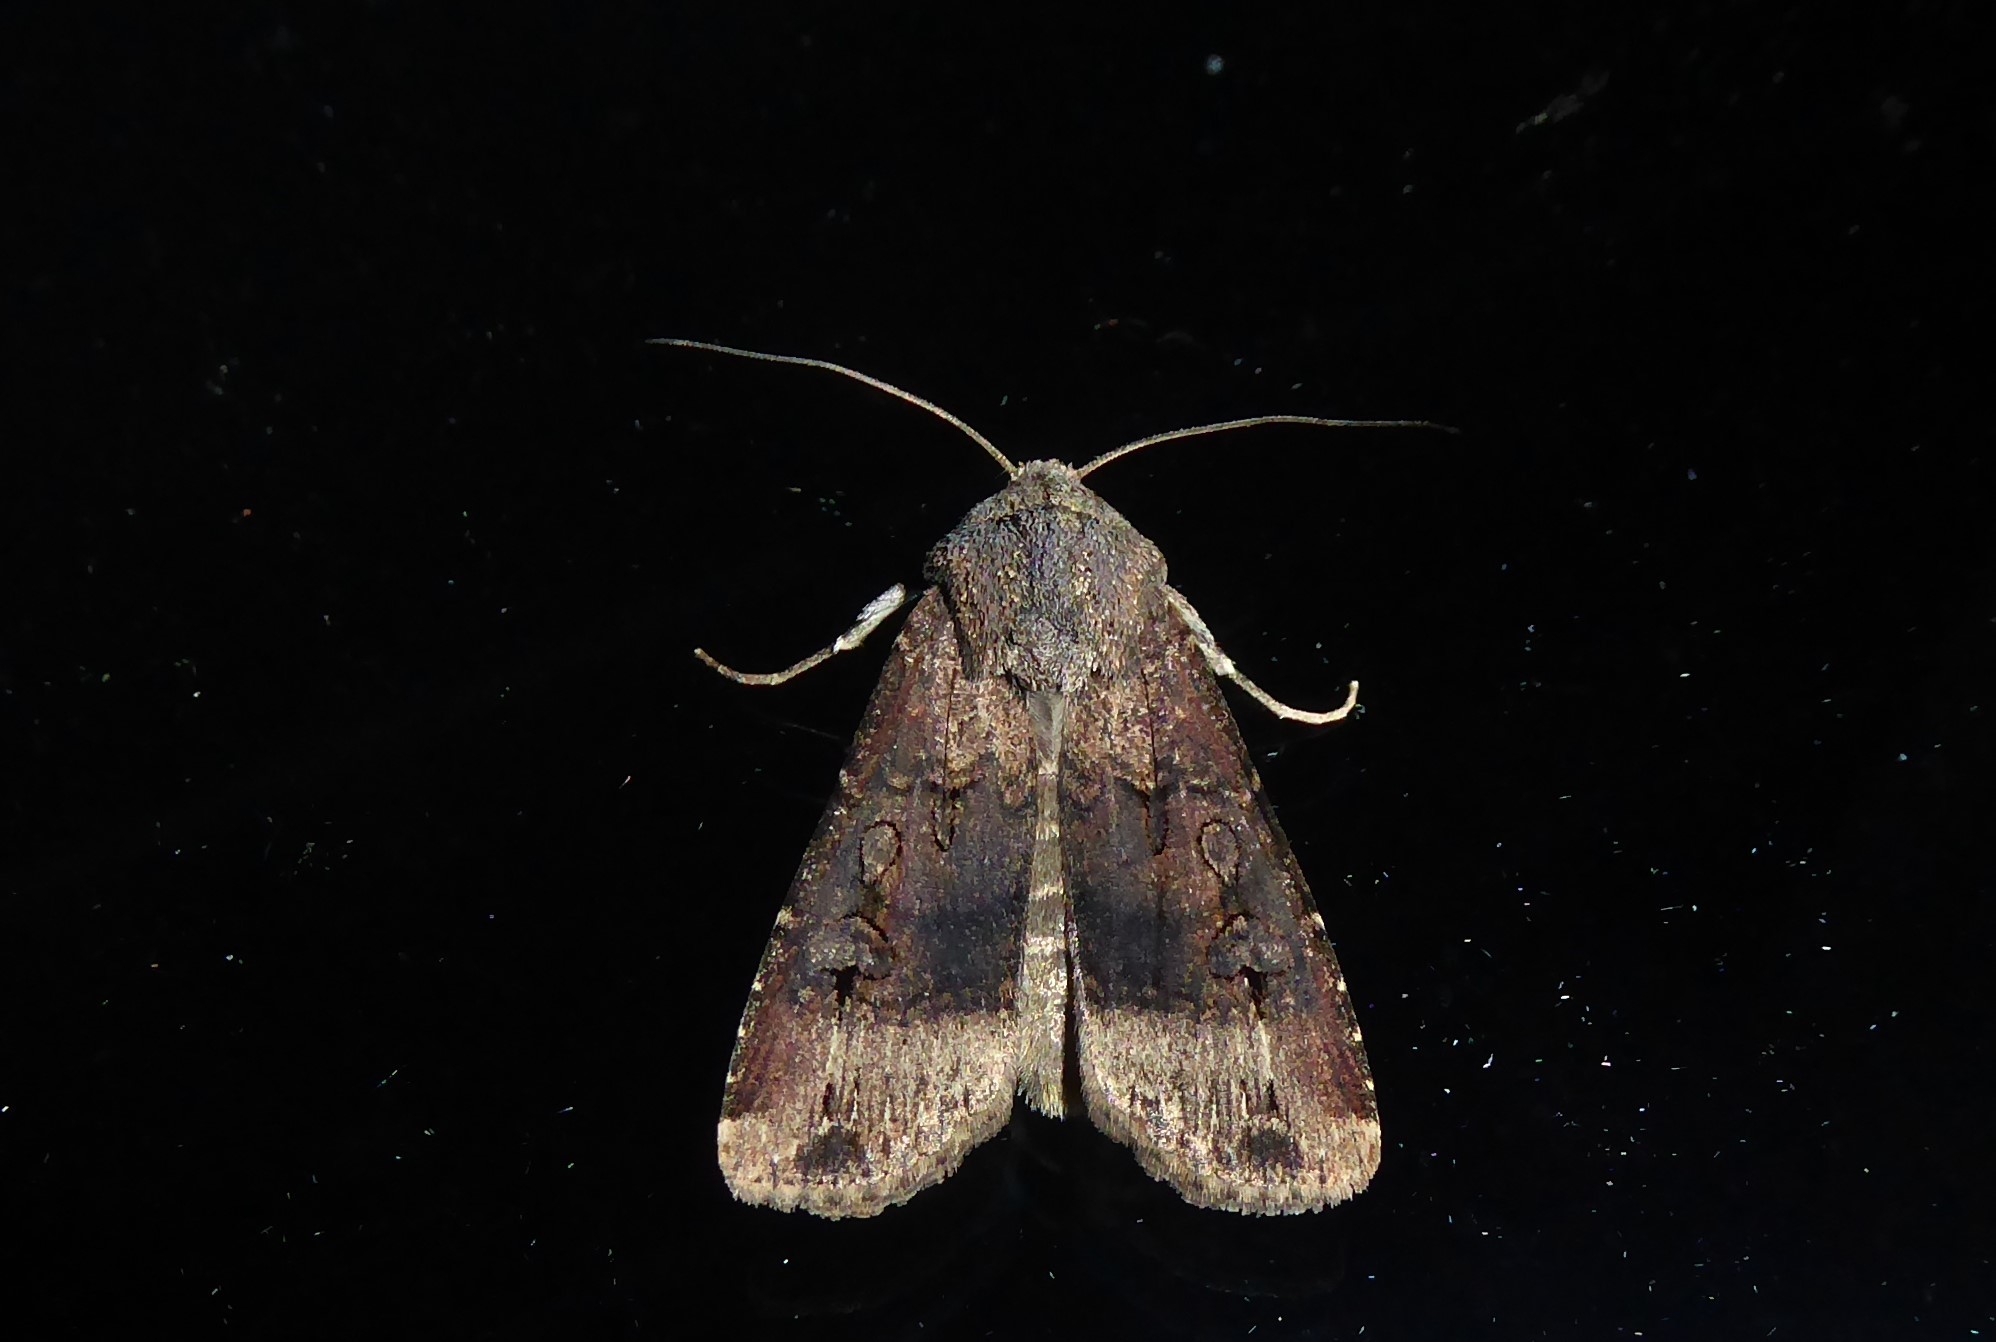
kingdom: Animalia
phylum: Arthropoda
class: Insecta
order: Lepidoptera
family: Noctuidae
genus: Agrotis
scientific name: Agrotis ipsilon
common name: Dark sword-grass
